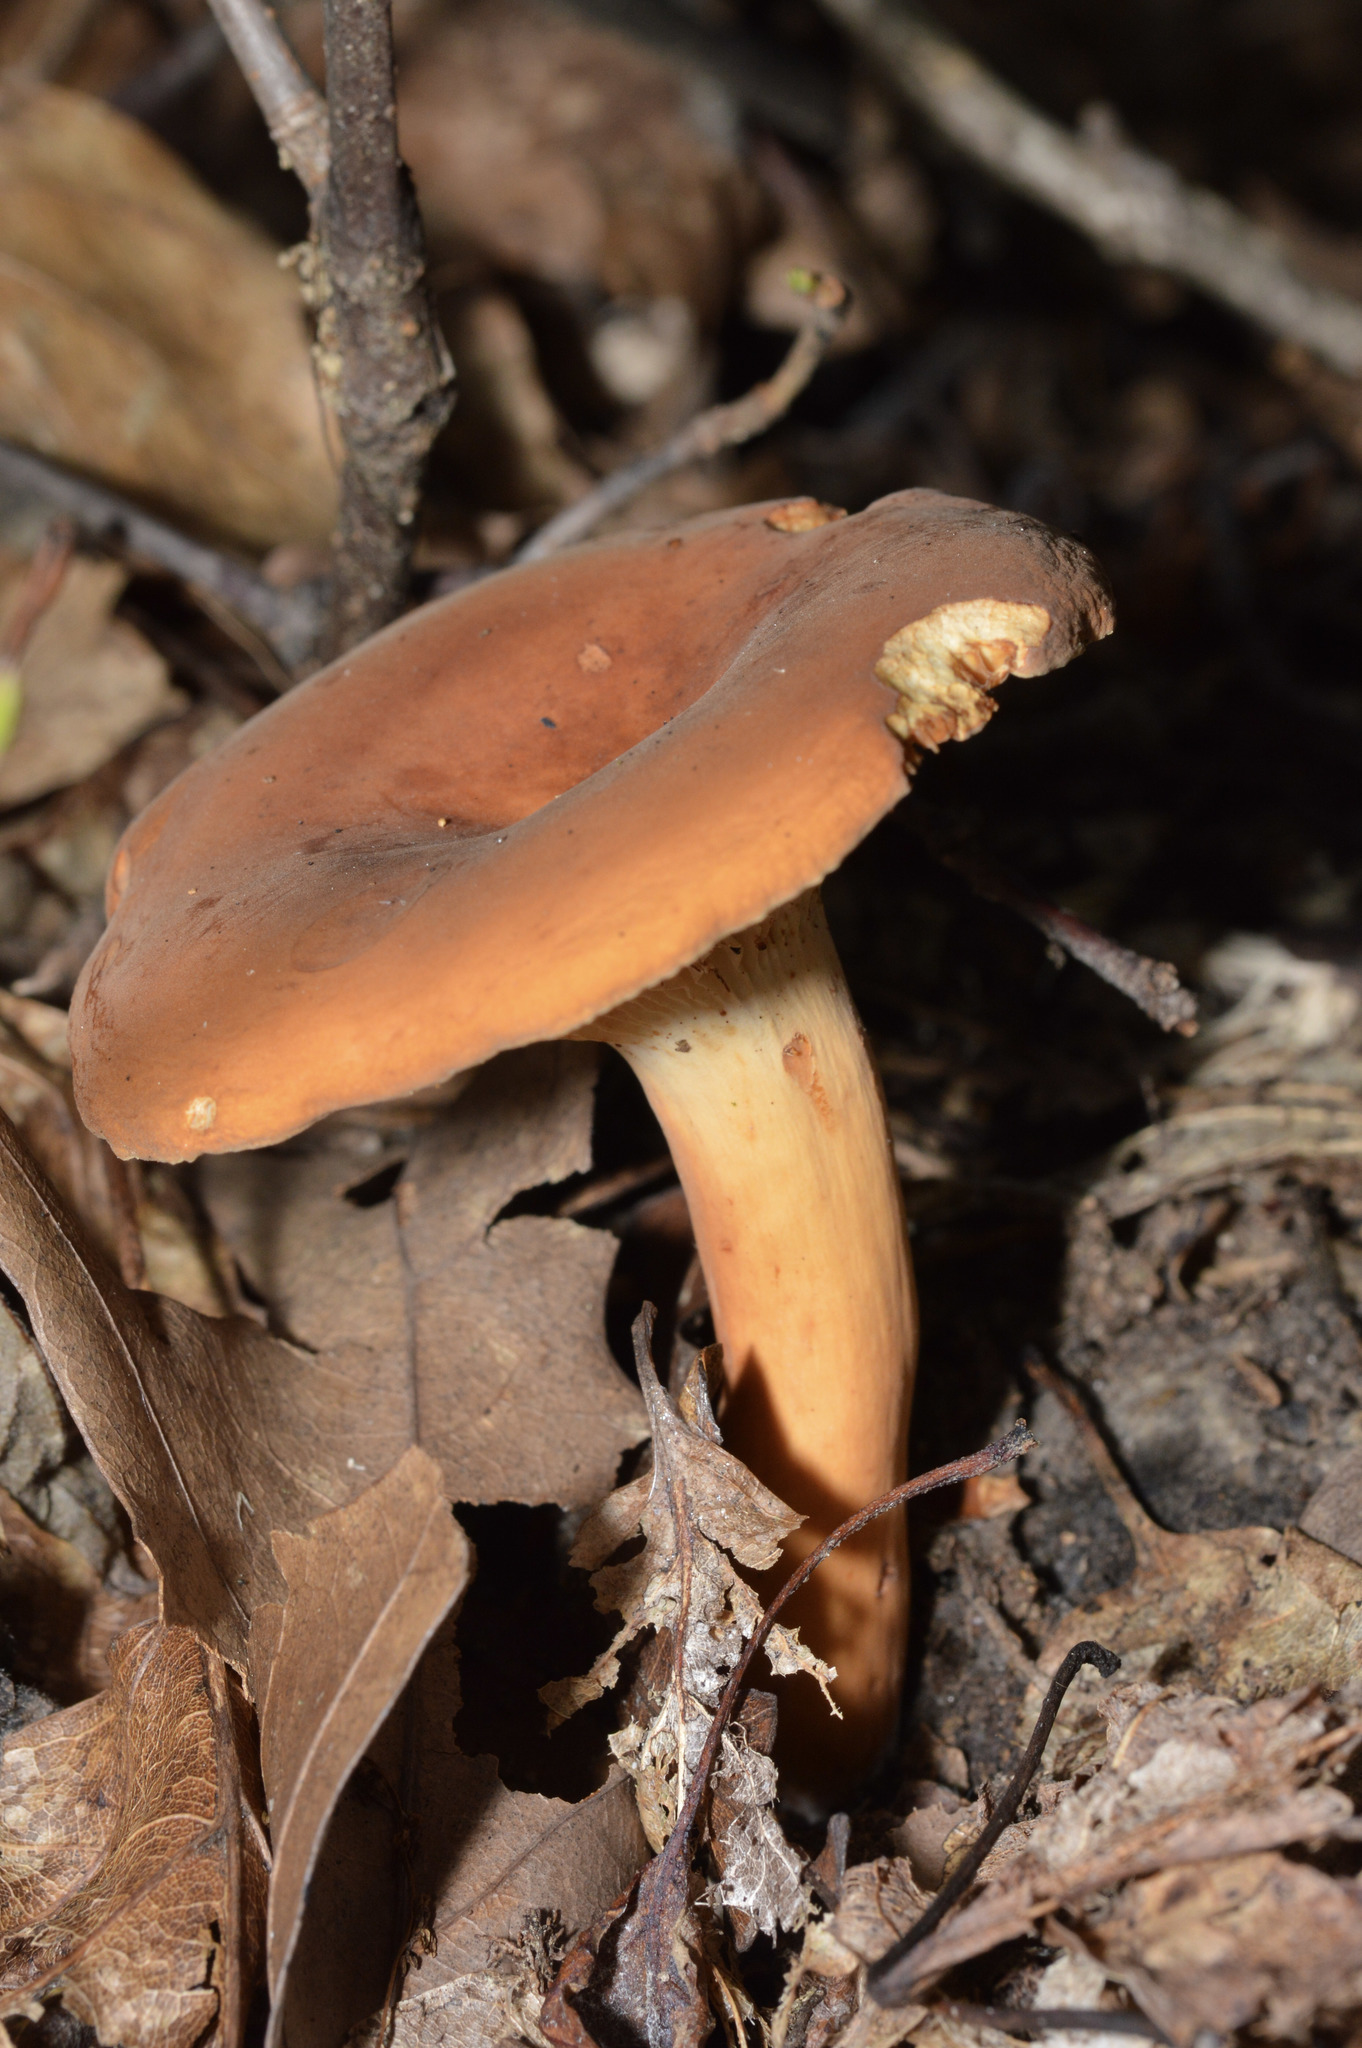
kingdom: Fungi
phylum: Basidiomycota
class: Agaricomycetes
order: Russulales
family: Russulaceae
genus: Lactifluus
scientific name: Lactifluus volemus
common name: Fishy milkcap
